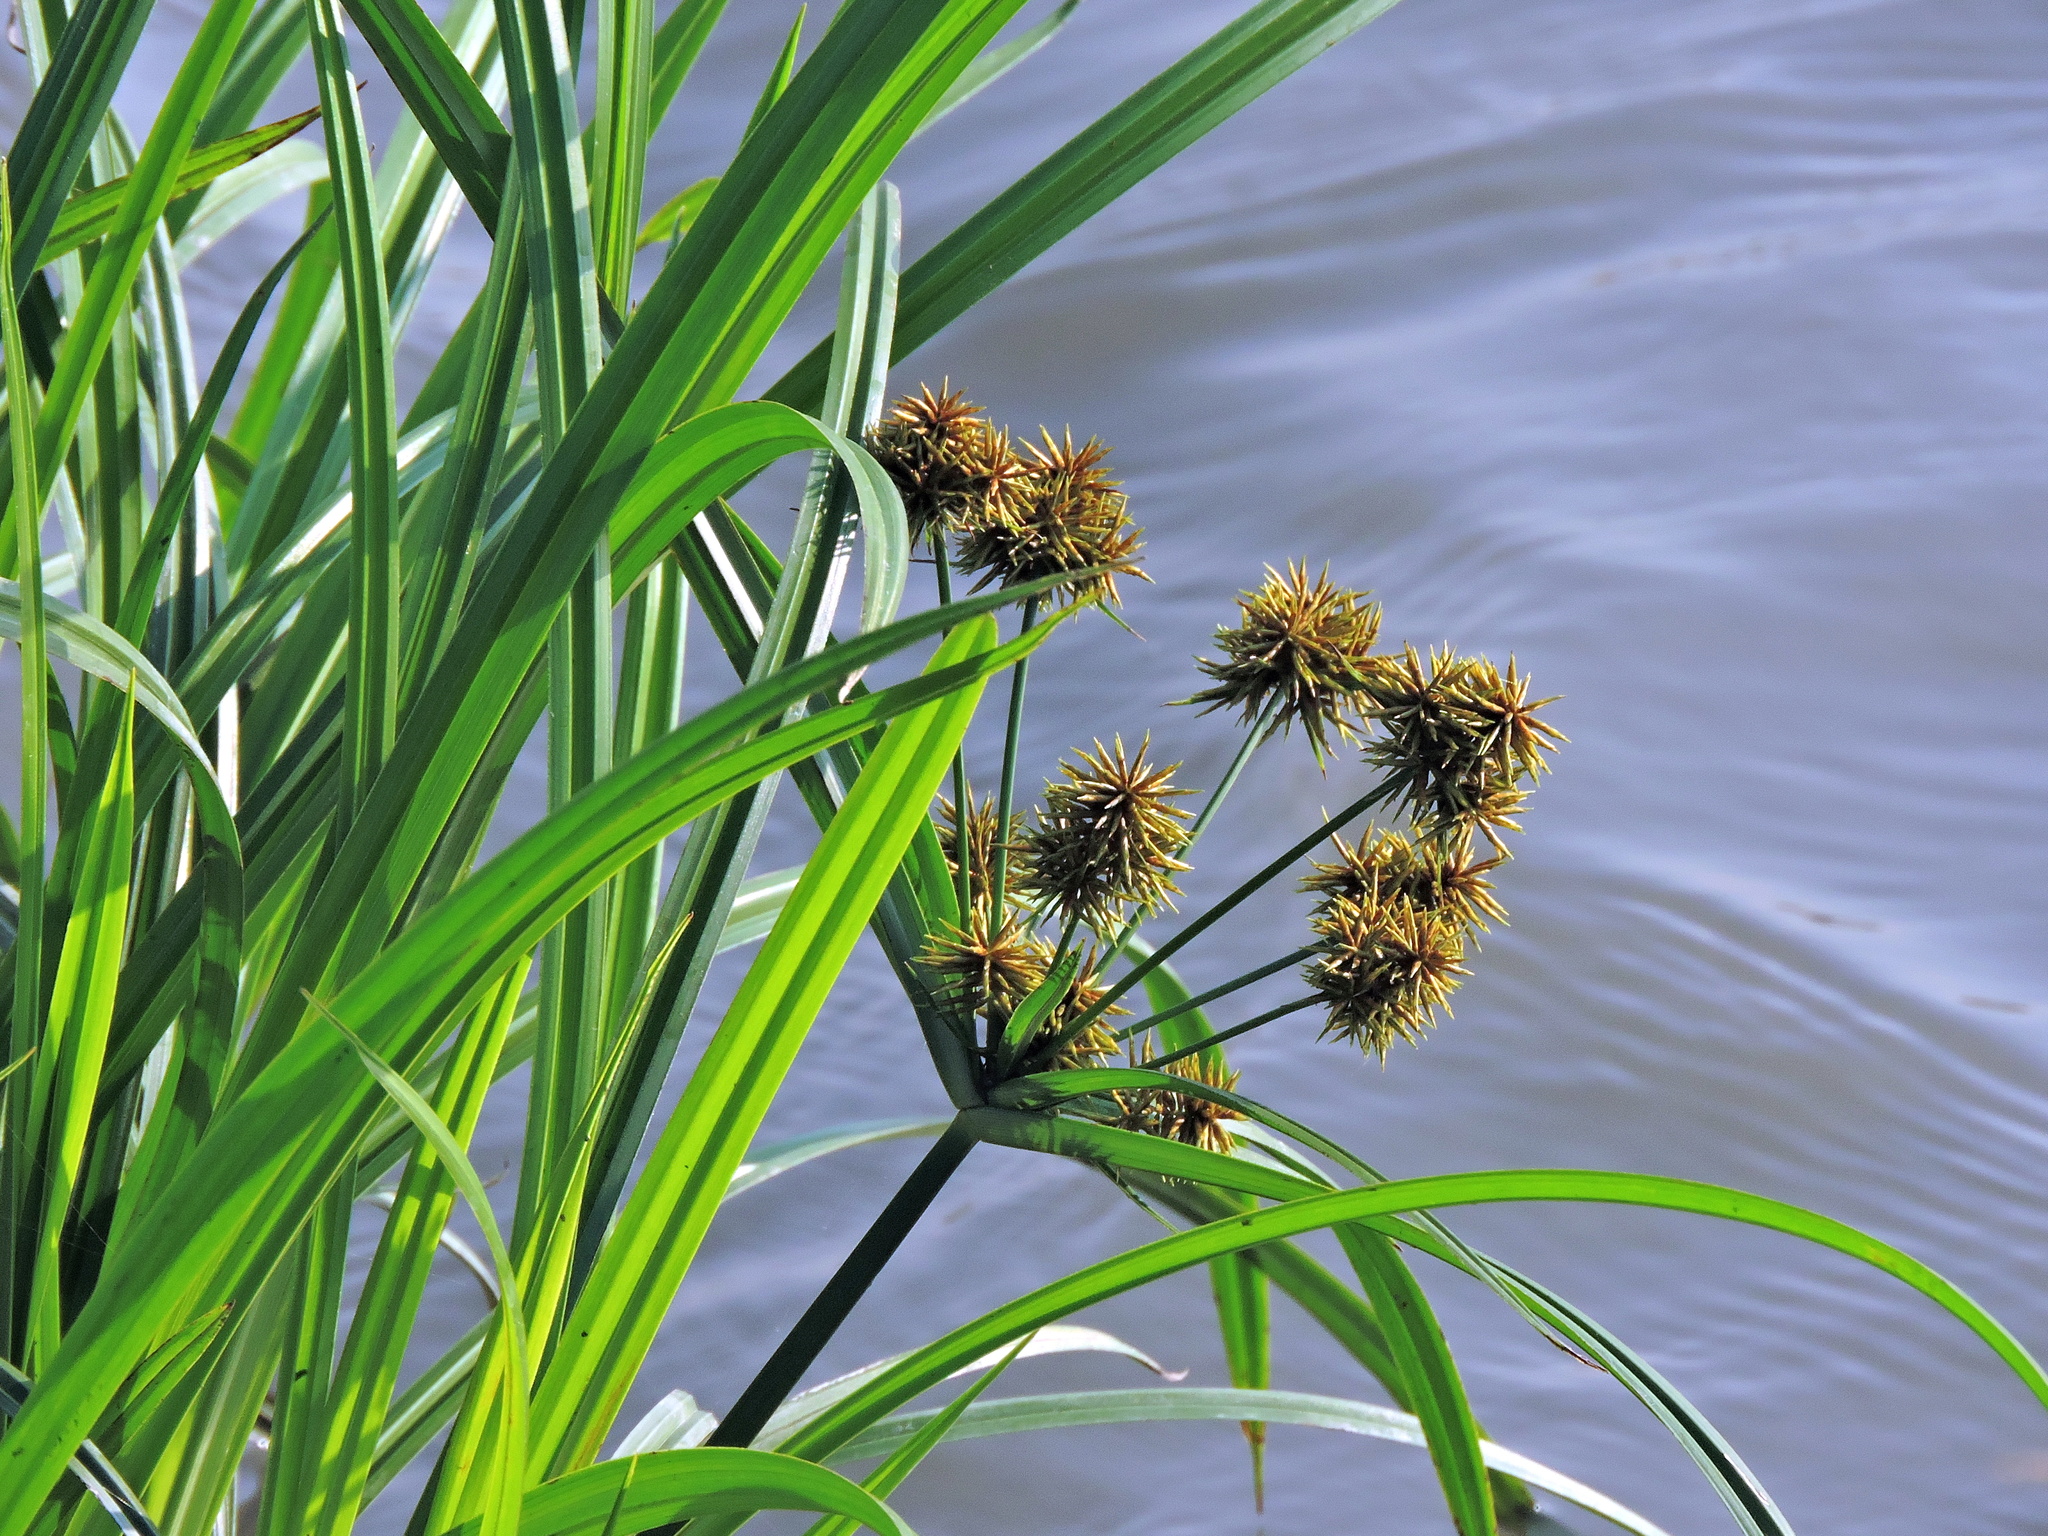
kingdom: Plantae
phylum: Tracheophyta
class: Liliopsida
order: Poales
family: Cyperaceae
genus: Cyperus
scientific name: Cyperus odoratus
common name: Fragrant flatsedge
